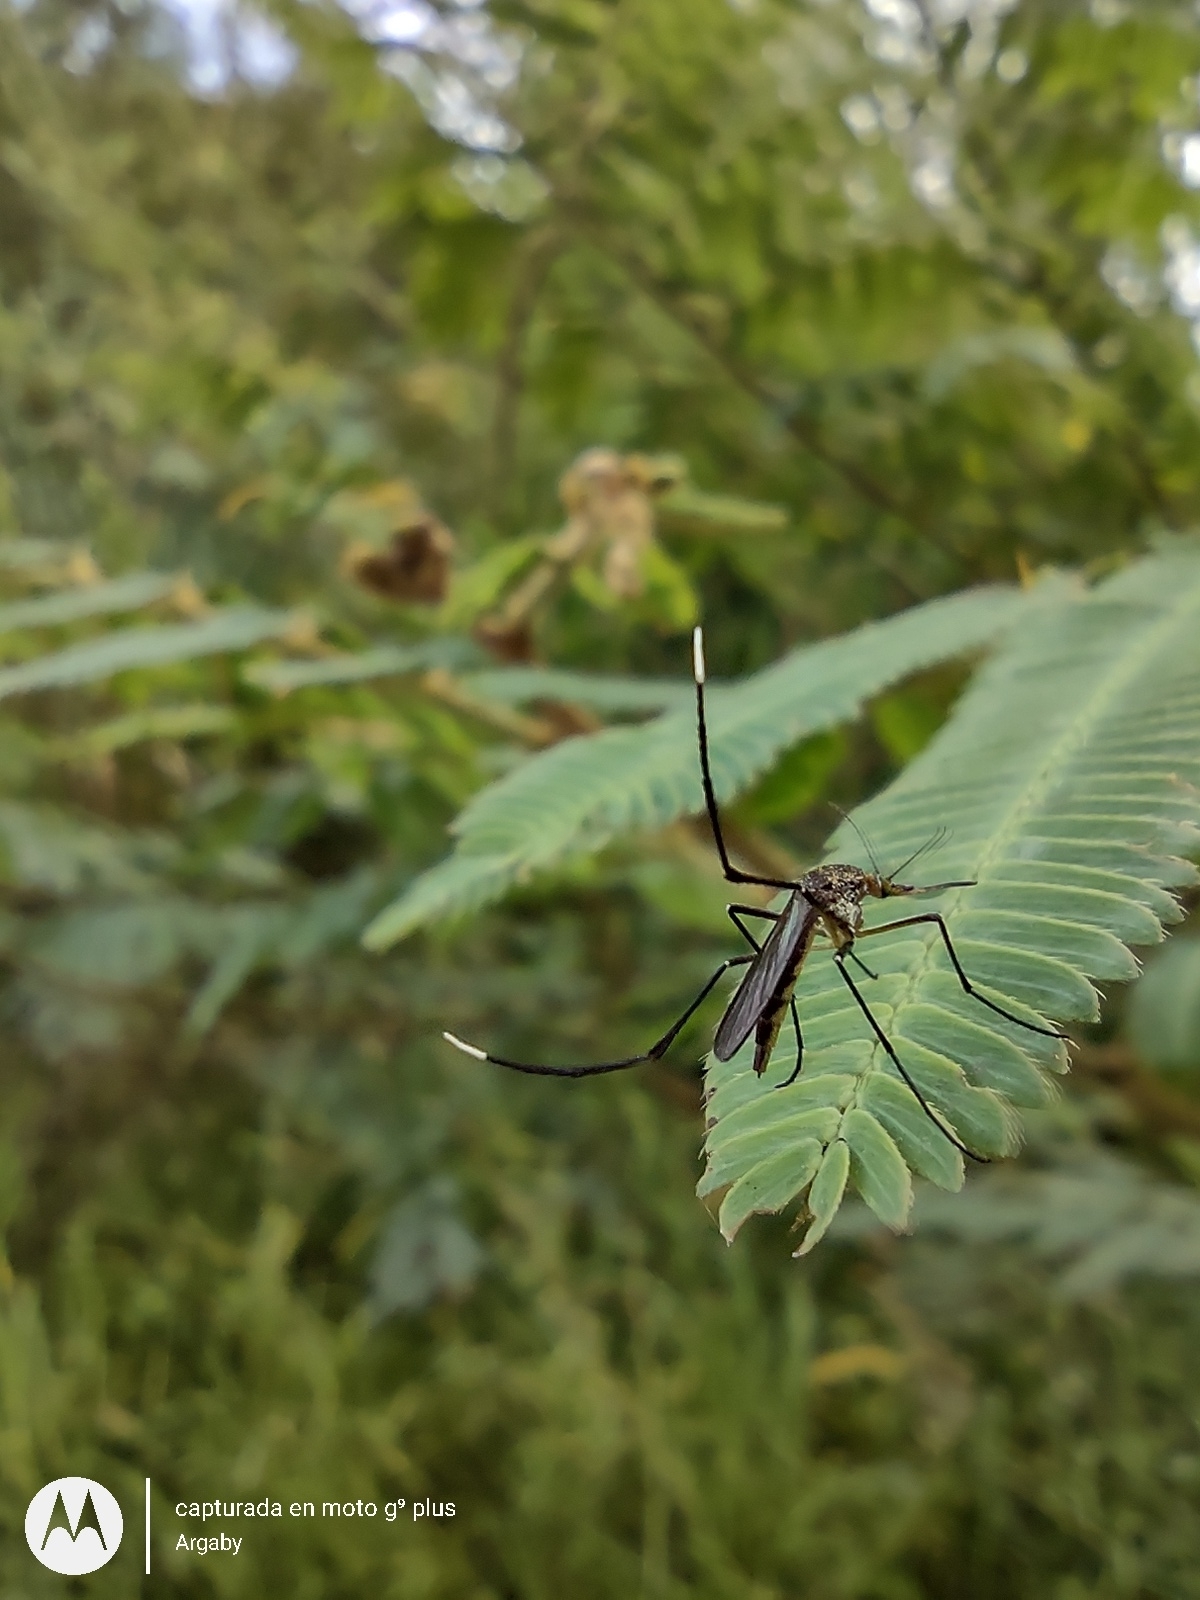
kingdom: Animalia
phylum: Arthropoda
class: Insecta
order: Diptera
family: Culicidae
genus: Psorophora
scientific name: Psorophora ferox
